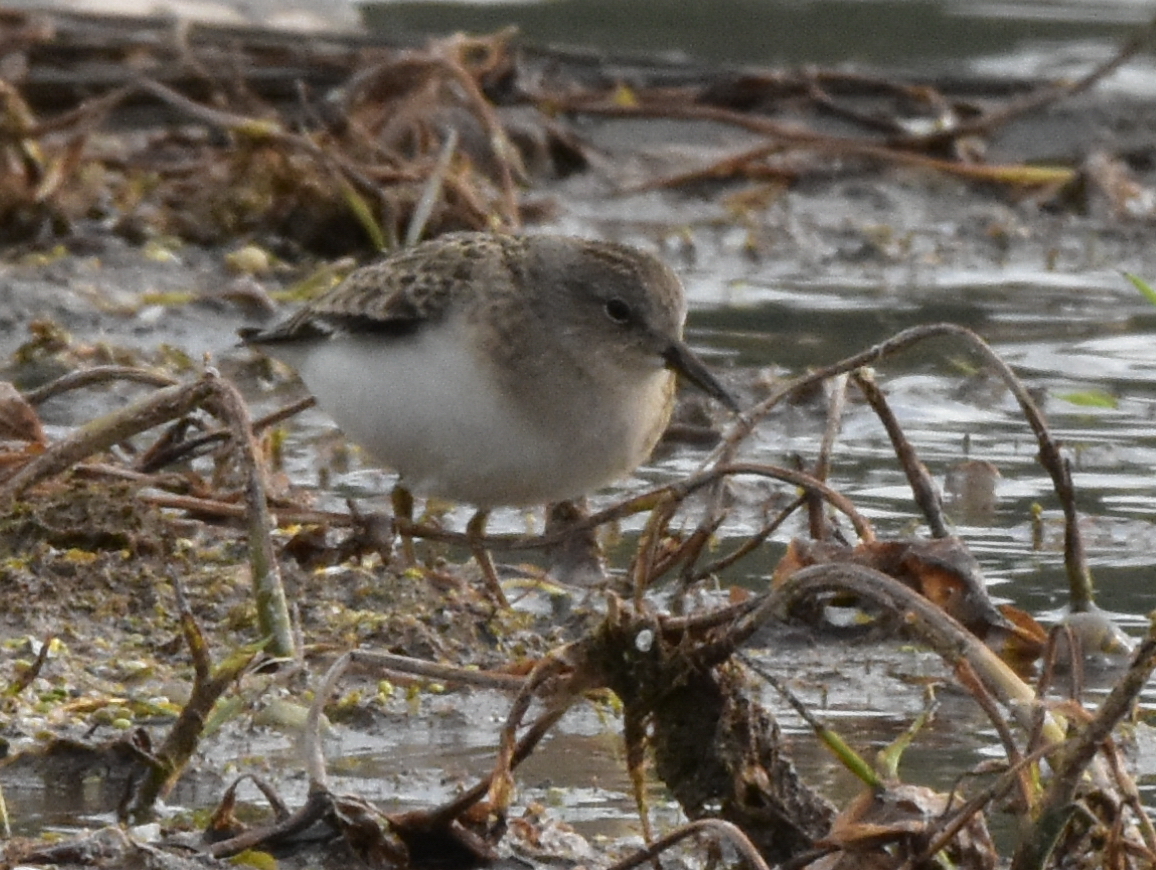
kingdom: Animalia
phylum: Chordata
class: Aves
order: Charadriiformes
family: Scolopacidae
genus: Calidris
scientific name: Calidris temminckii
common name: Temminck's stint
